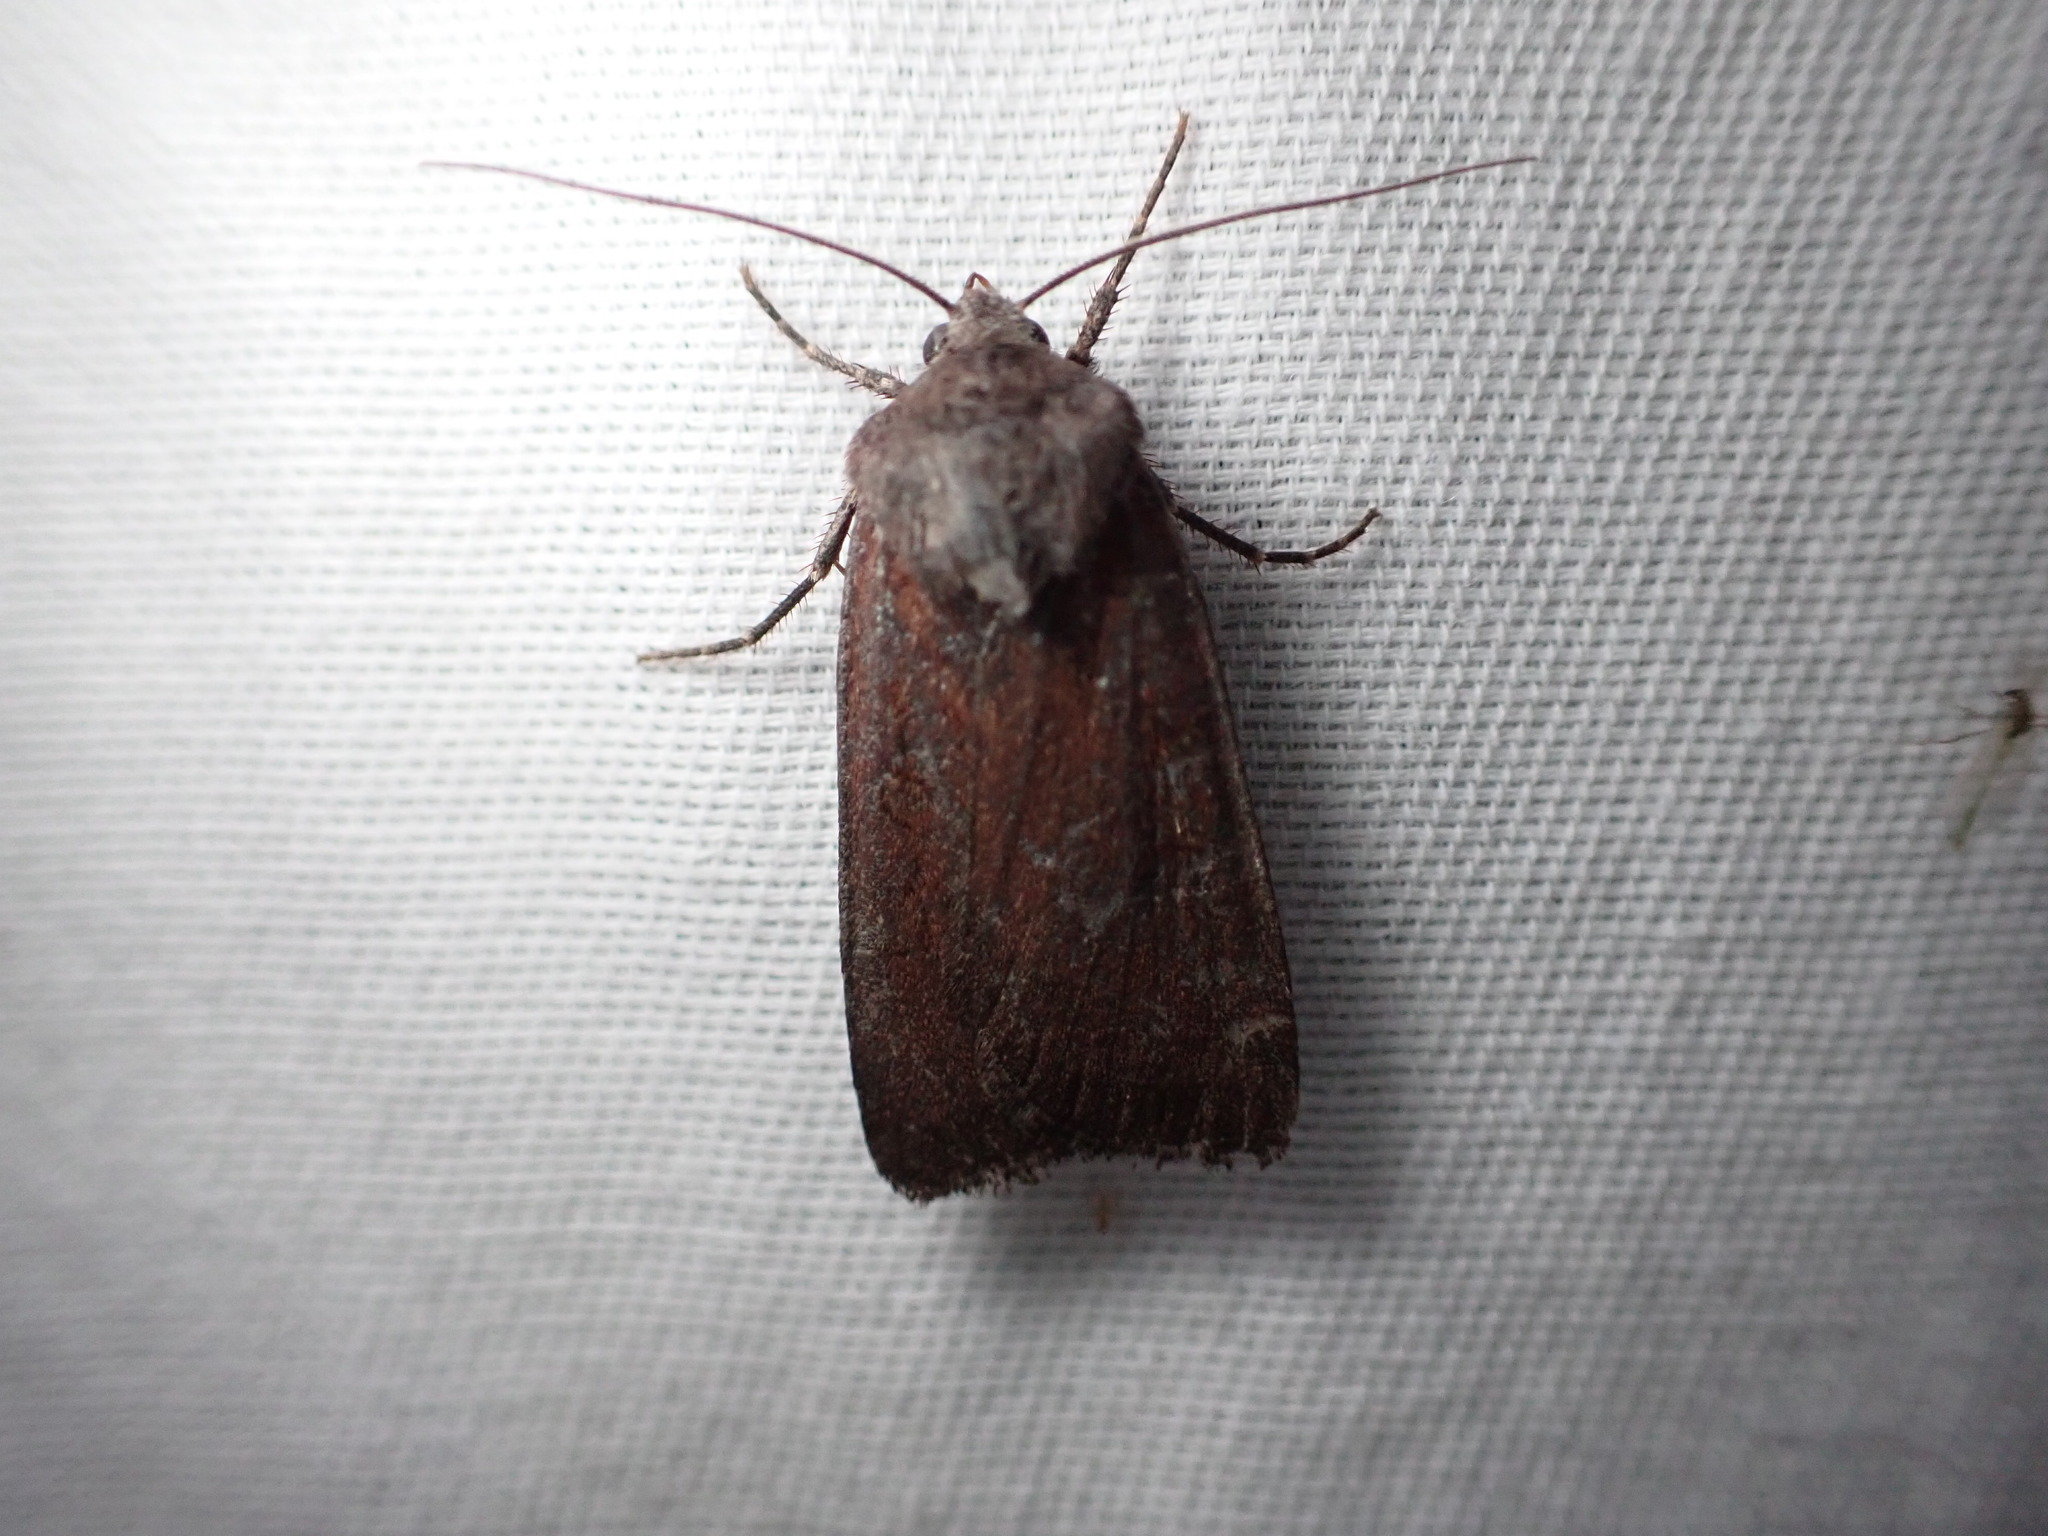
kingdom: Animalia
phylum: Arthropoda
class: Insecta
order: Lepidoptera
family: Noctuidae
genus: Euxoa
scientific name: Euxoa perpolita
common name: Polished dart
